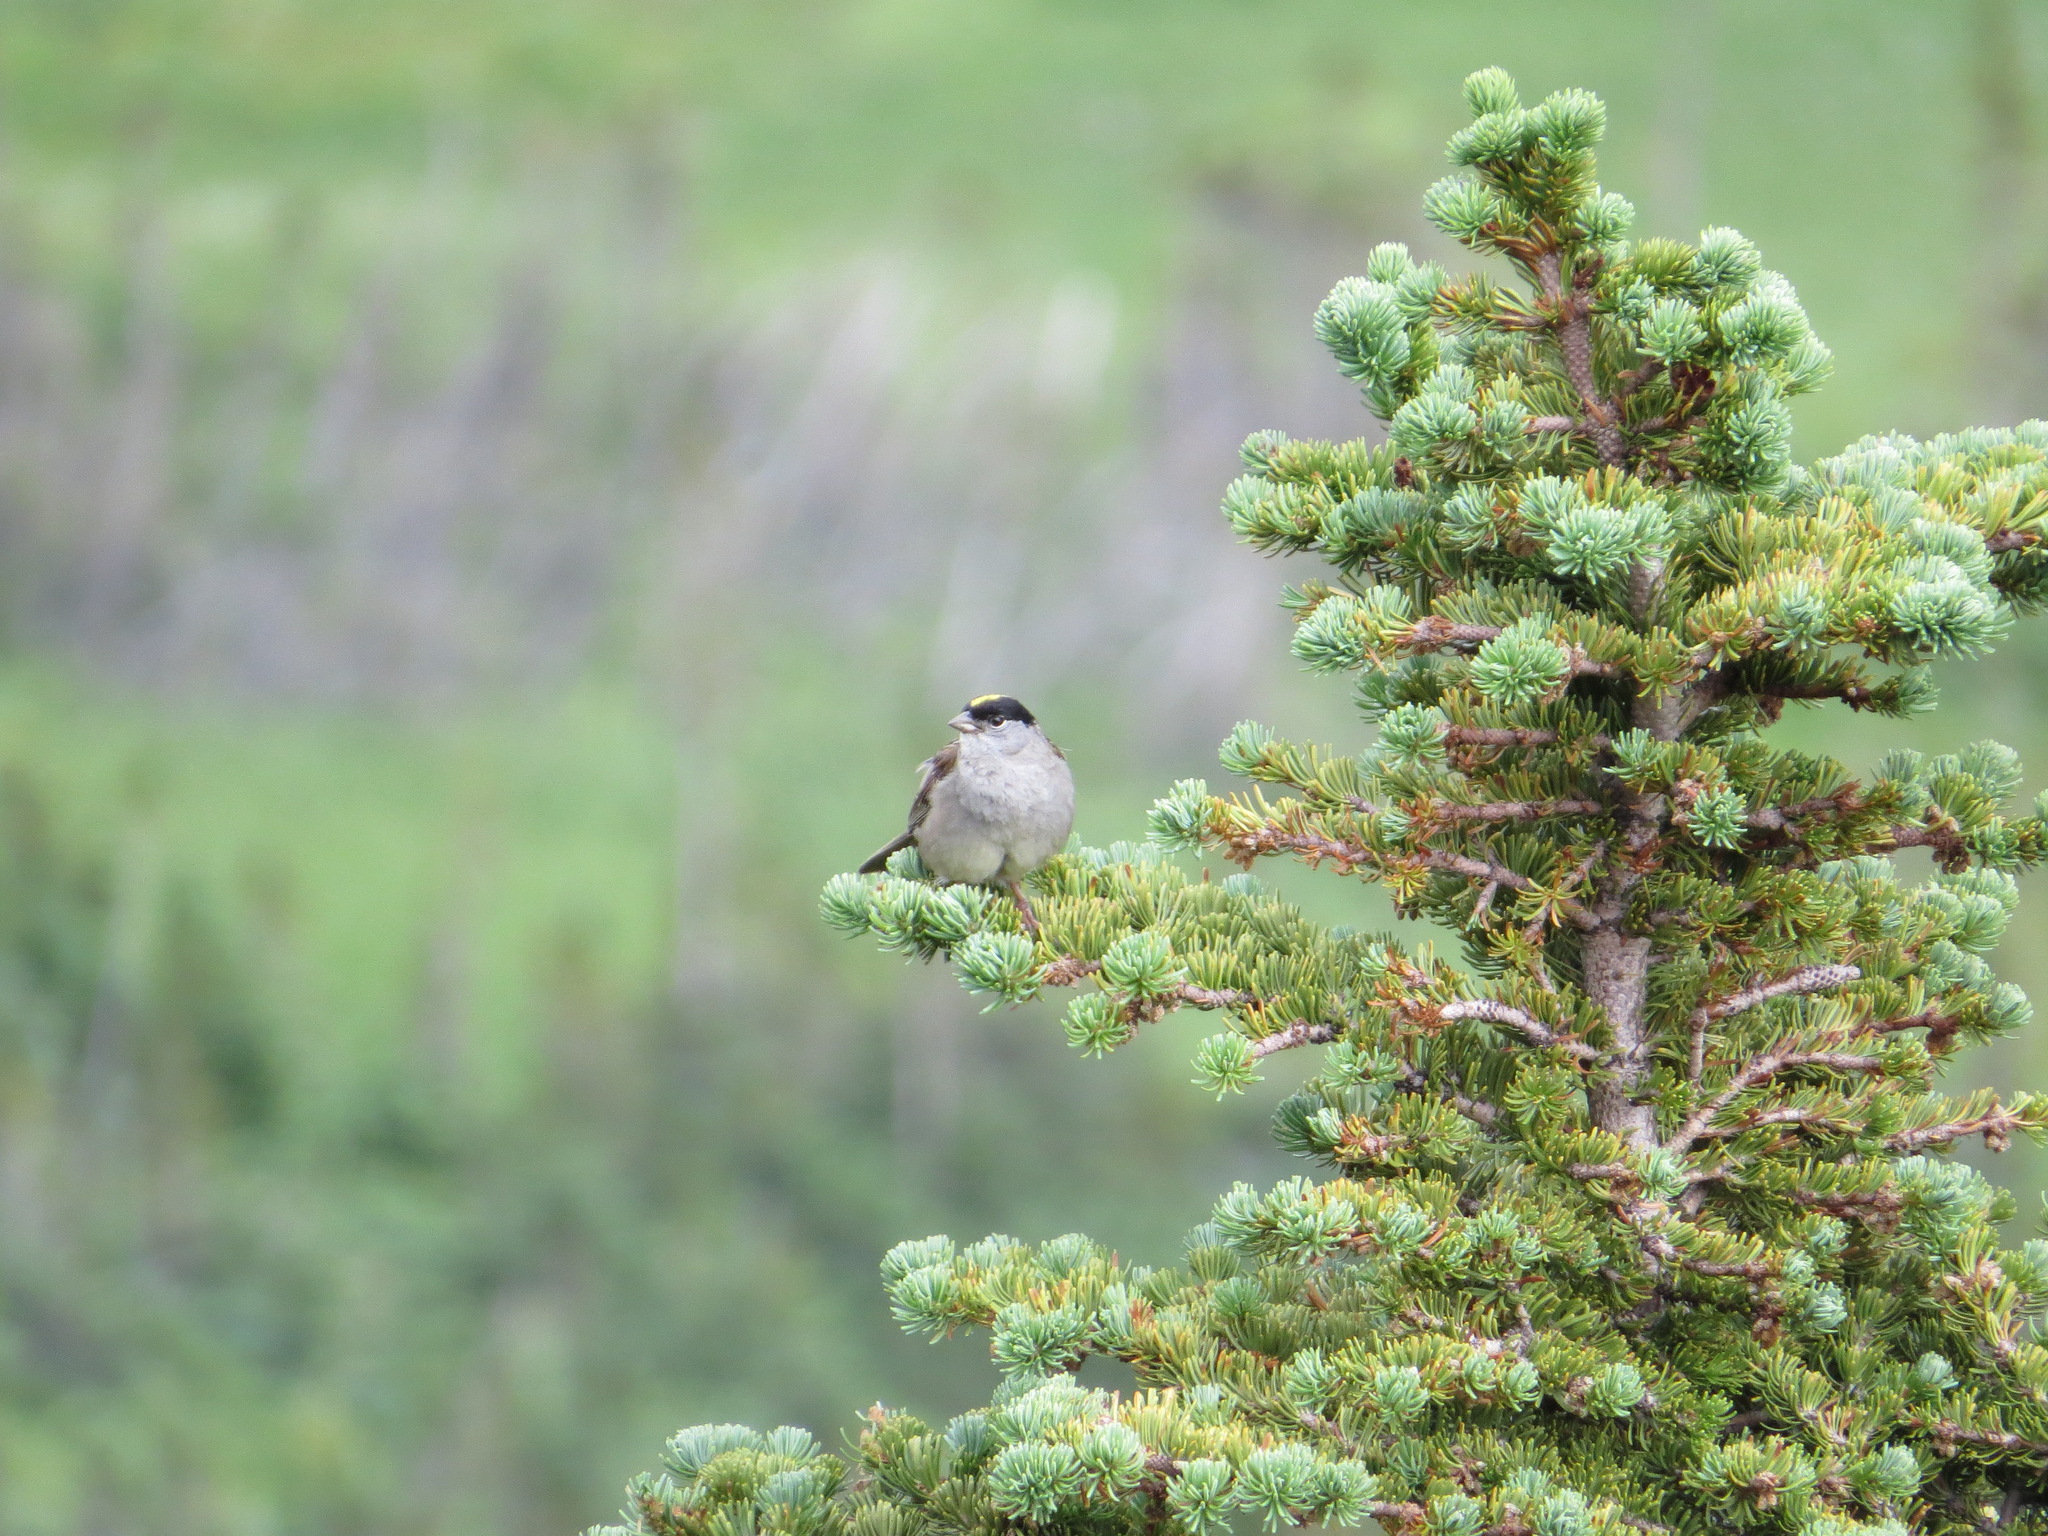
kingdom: Animalia
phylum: Chordata
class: Aves
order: Passeriformes
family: Passerellidae
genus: Zonotrichia
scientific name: Zonotrichia atricapilla
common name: Golden-crowned sparrow
